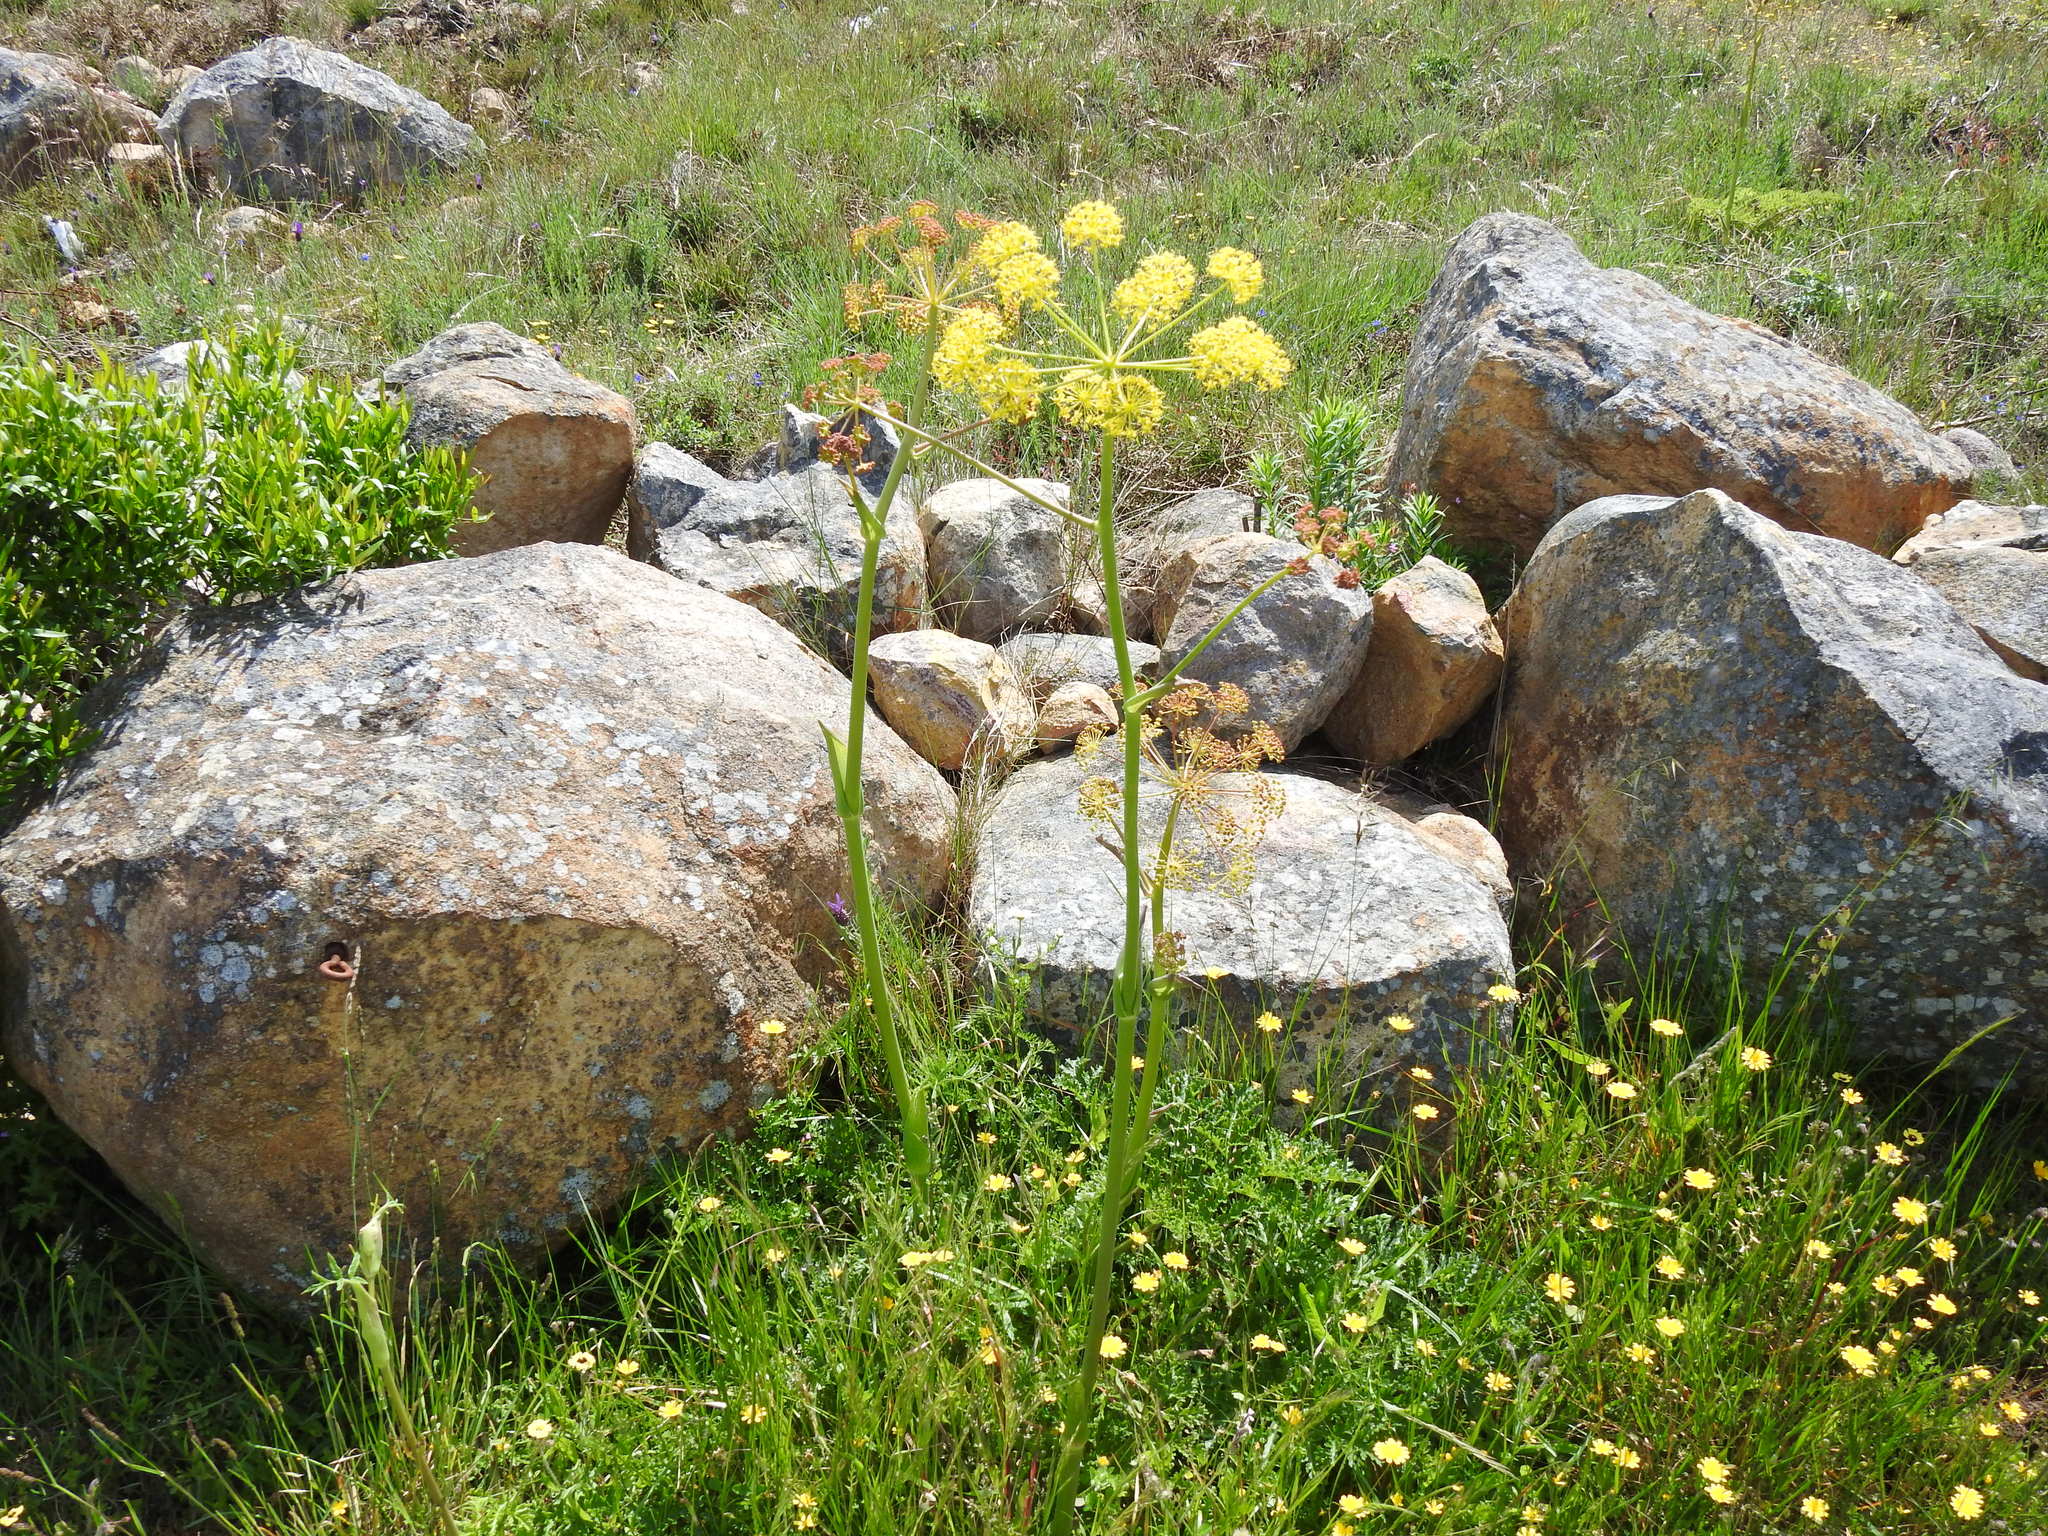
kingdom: Plantae
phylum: Tracheophyta
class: Magnoliopsida
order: Apiales
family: Apiaceae
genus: Thapsia
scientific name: Thapsia villosa
